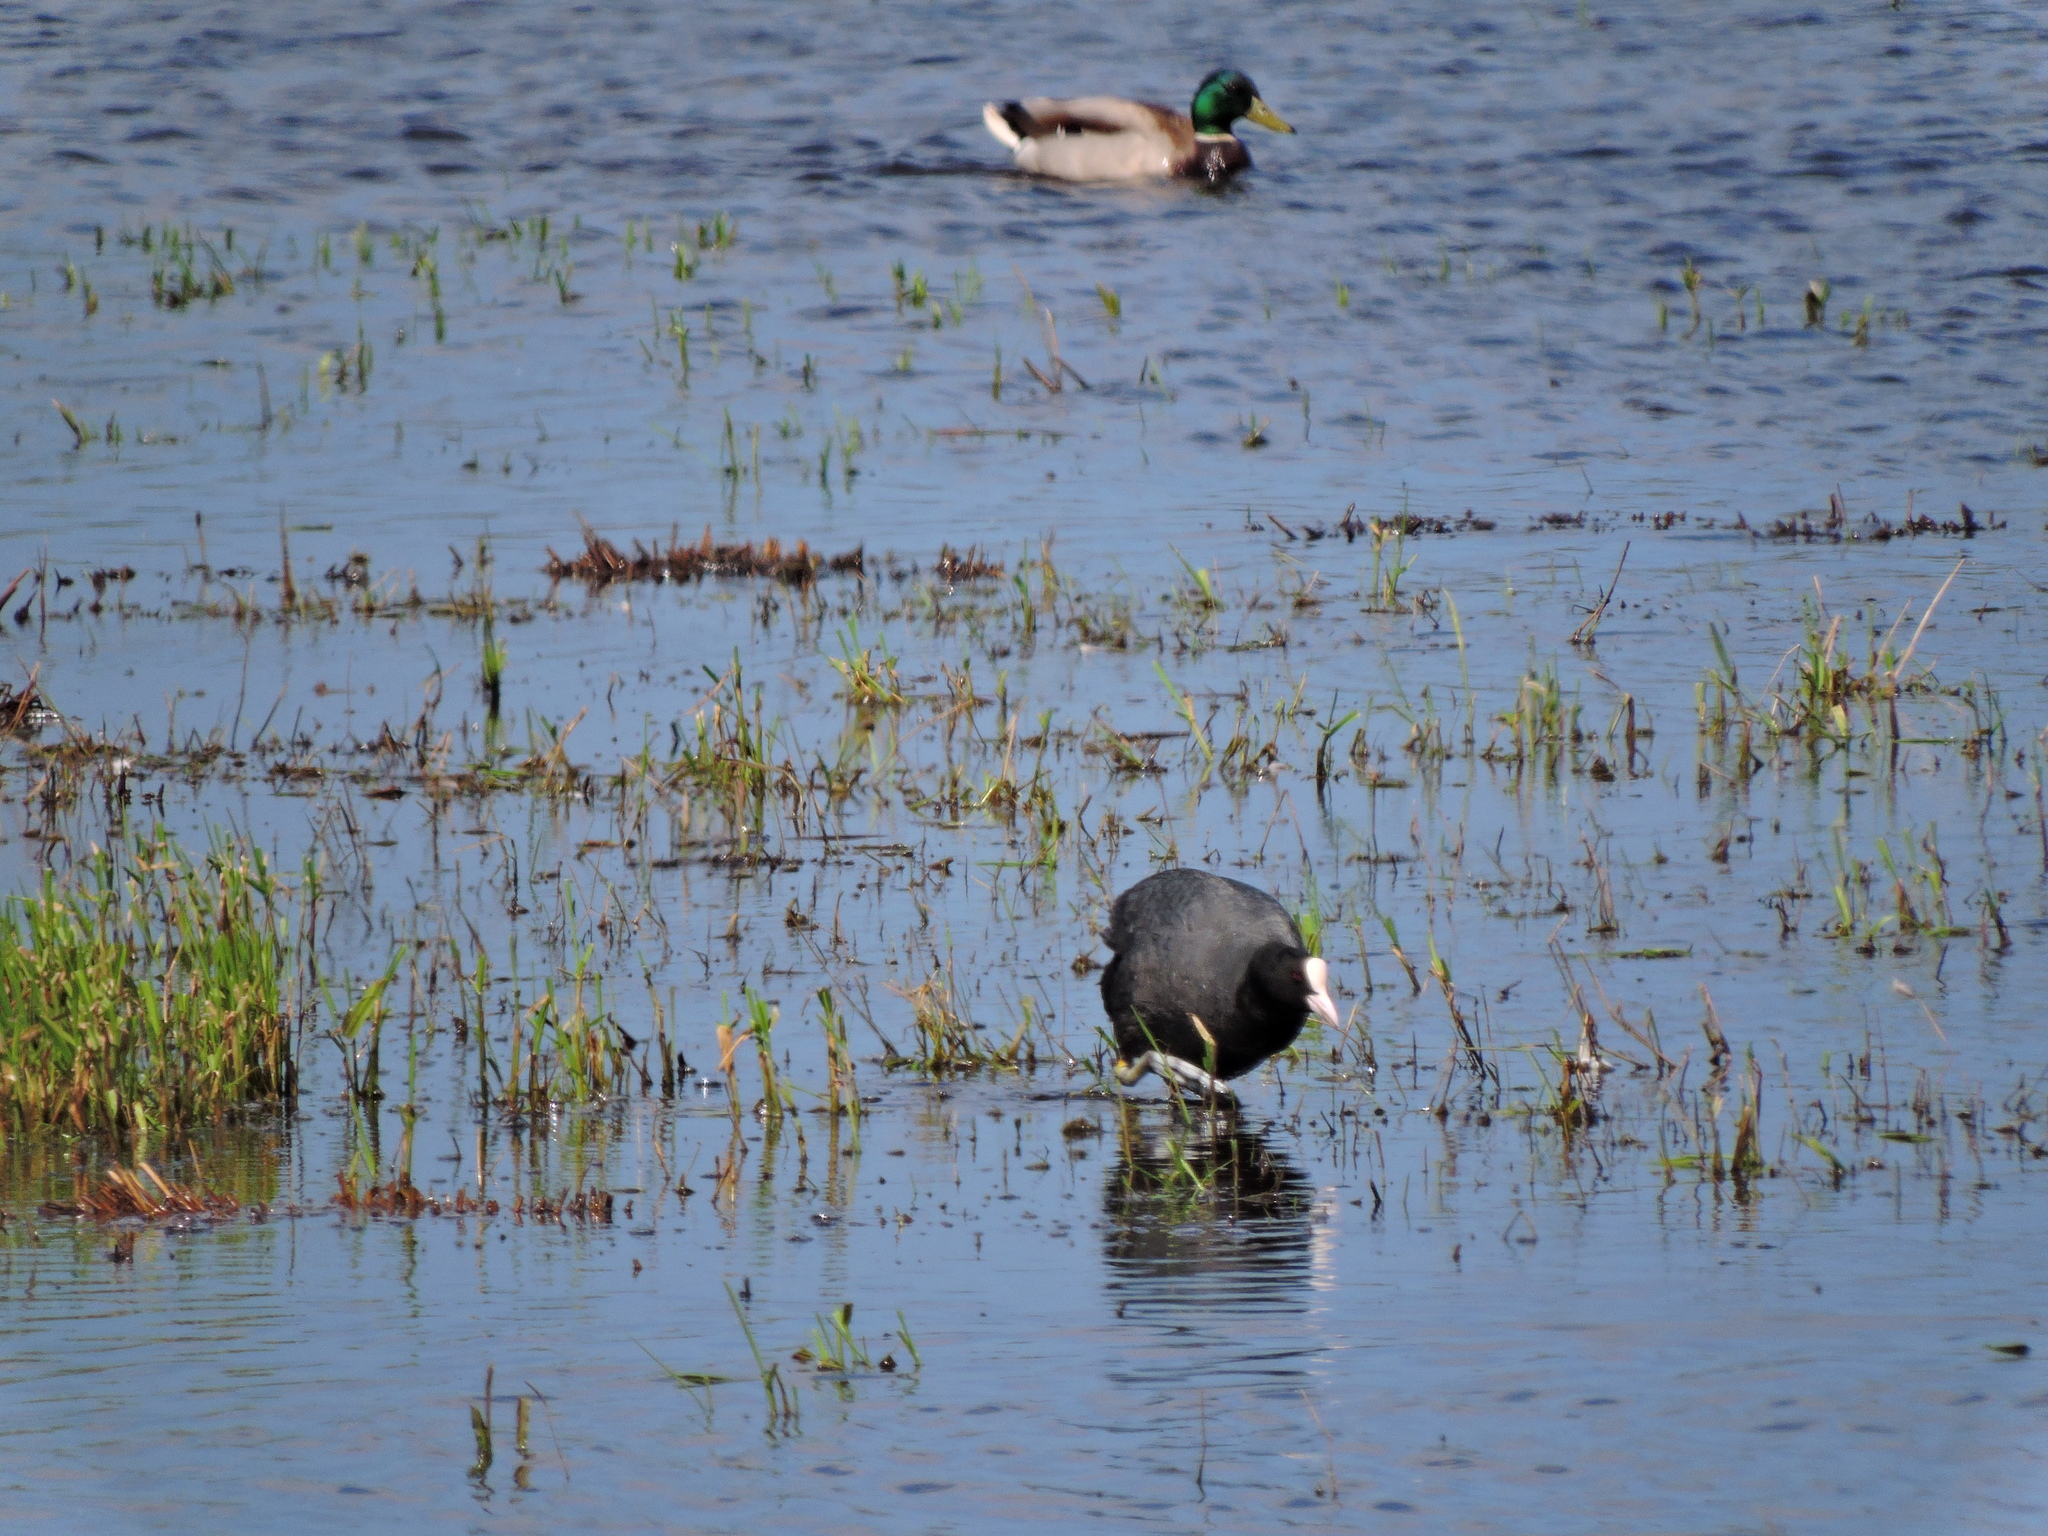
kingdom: Animalia
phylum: Chordata
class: Aves
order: Gruiformes
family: Rallidae
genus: Fulica
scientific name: Fulica atra
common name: Eurasian coot
